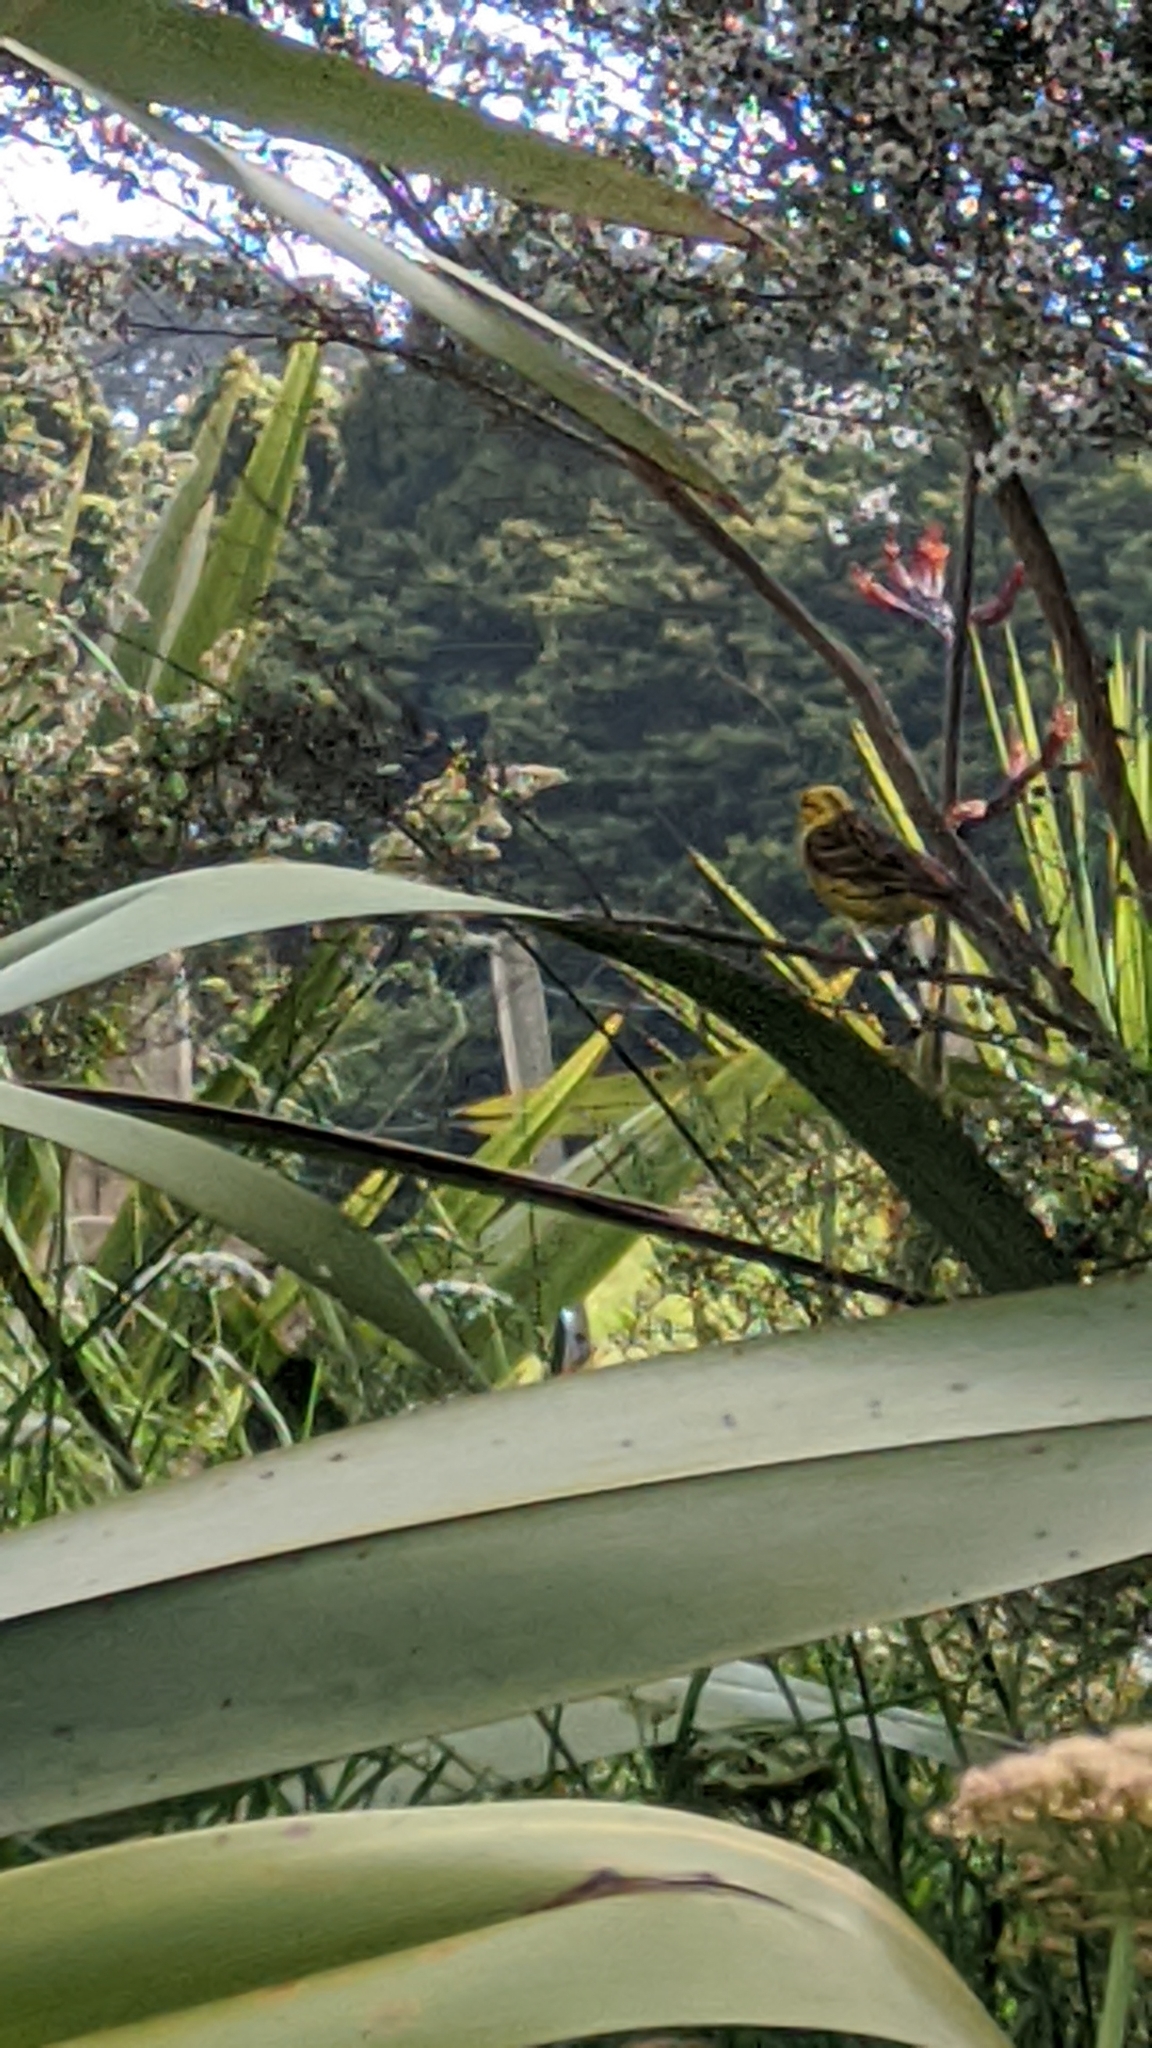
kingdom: Animalia
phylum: Chordata
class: Aves
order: Passeriformes
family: Emberizidae
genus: Emberiza
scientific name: Emberiza citrinella
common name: Yellowhammer
